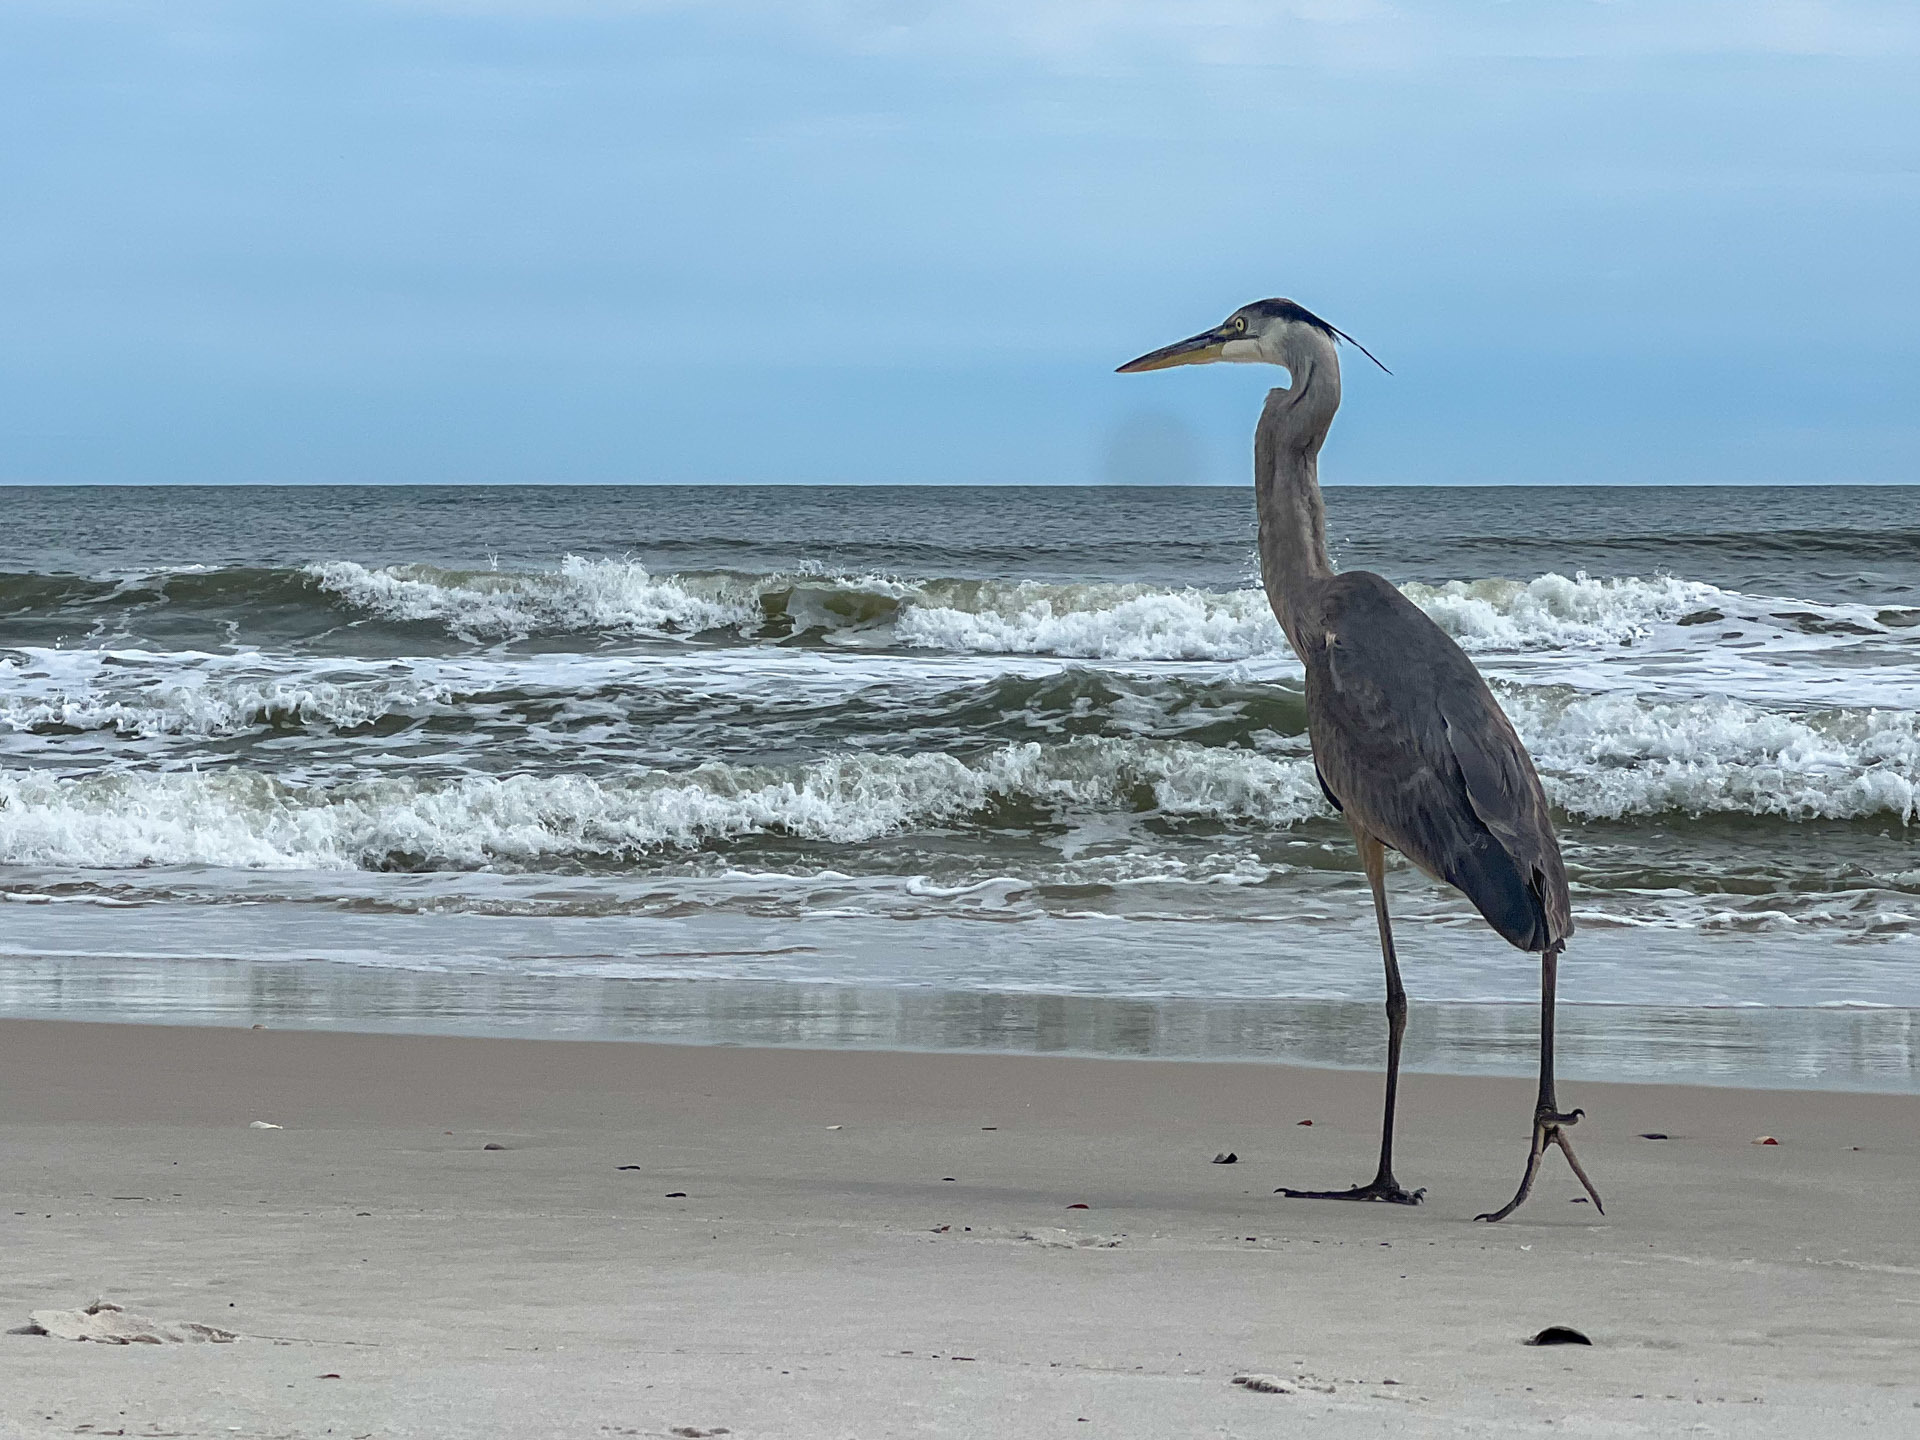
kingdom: Animalia
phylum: Chordata
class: Aves
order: Pelecaniformes
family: Ardeidae
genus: Ardea
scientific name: Ardea herodias
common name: Great blue heron
